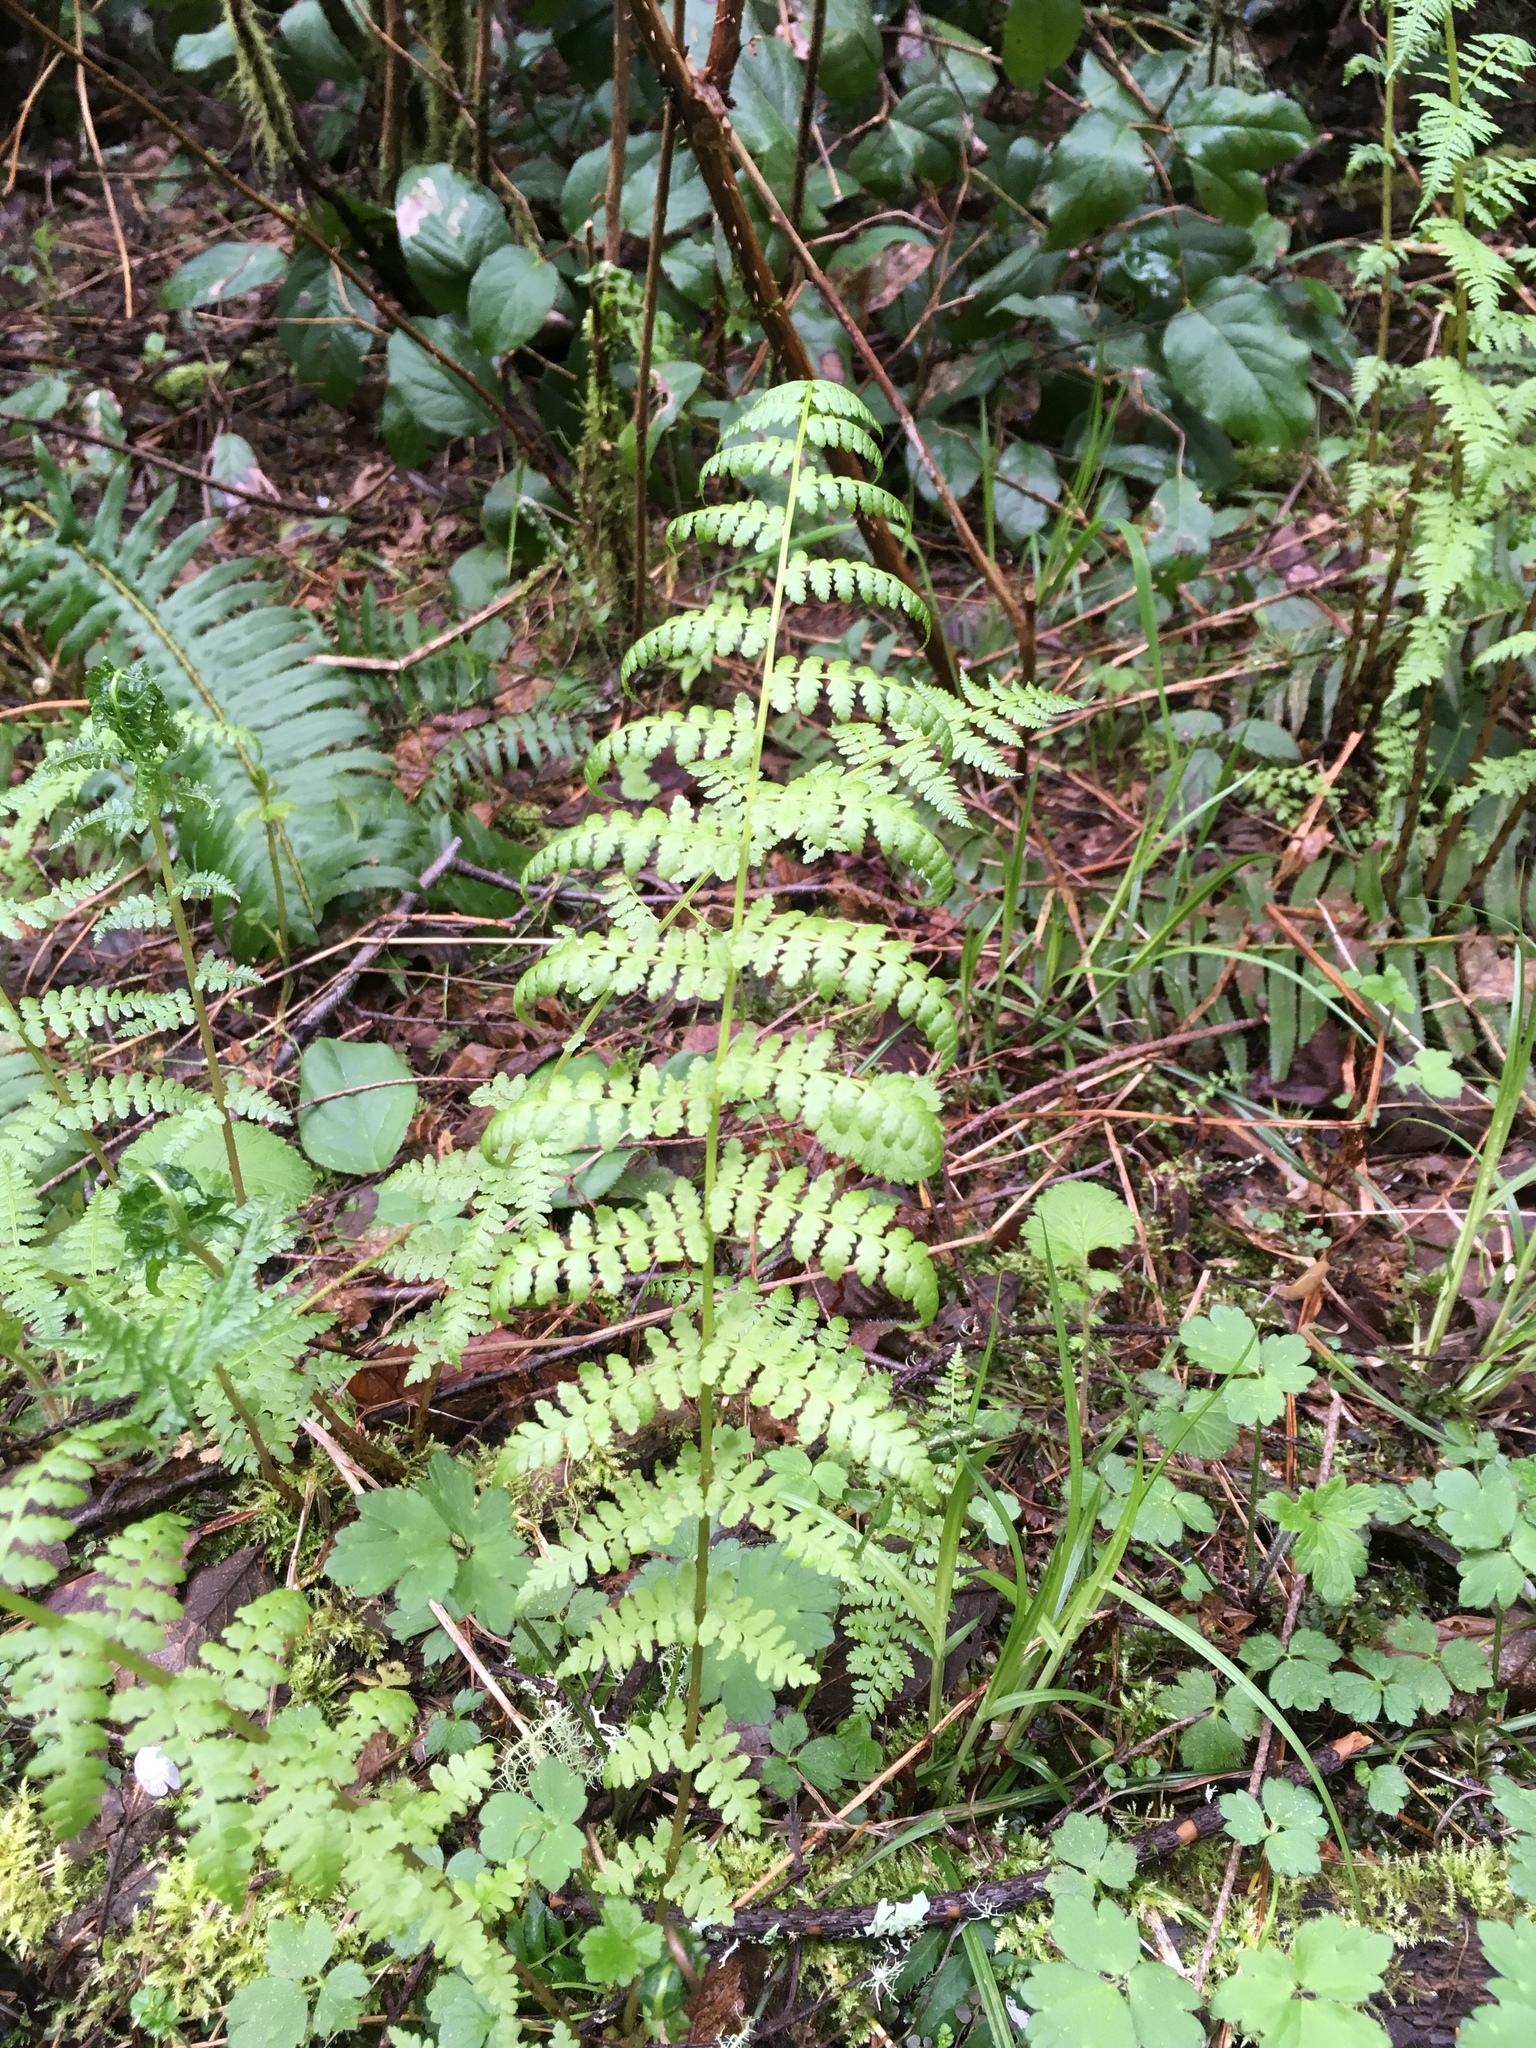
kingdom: Plantae
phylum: Tracheophyta
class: Polypodiopsida
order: Polypodiales
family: Athyriaceae
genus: Athyrium
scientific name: Athyrium filix-femina
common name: Lady fern
